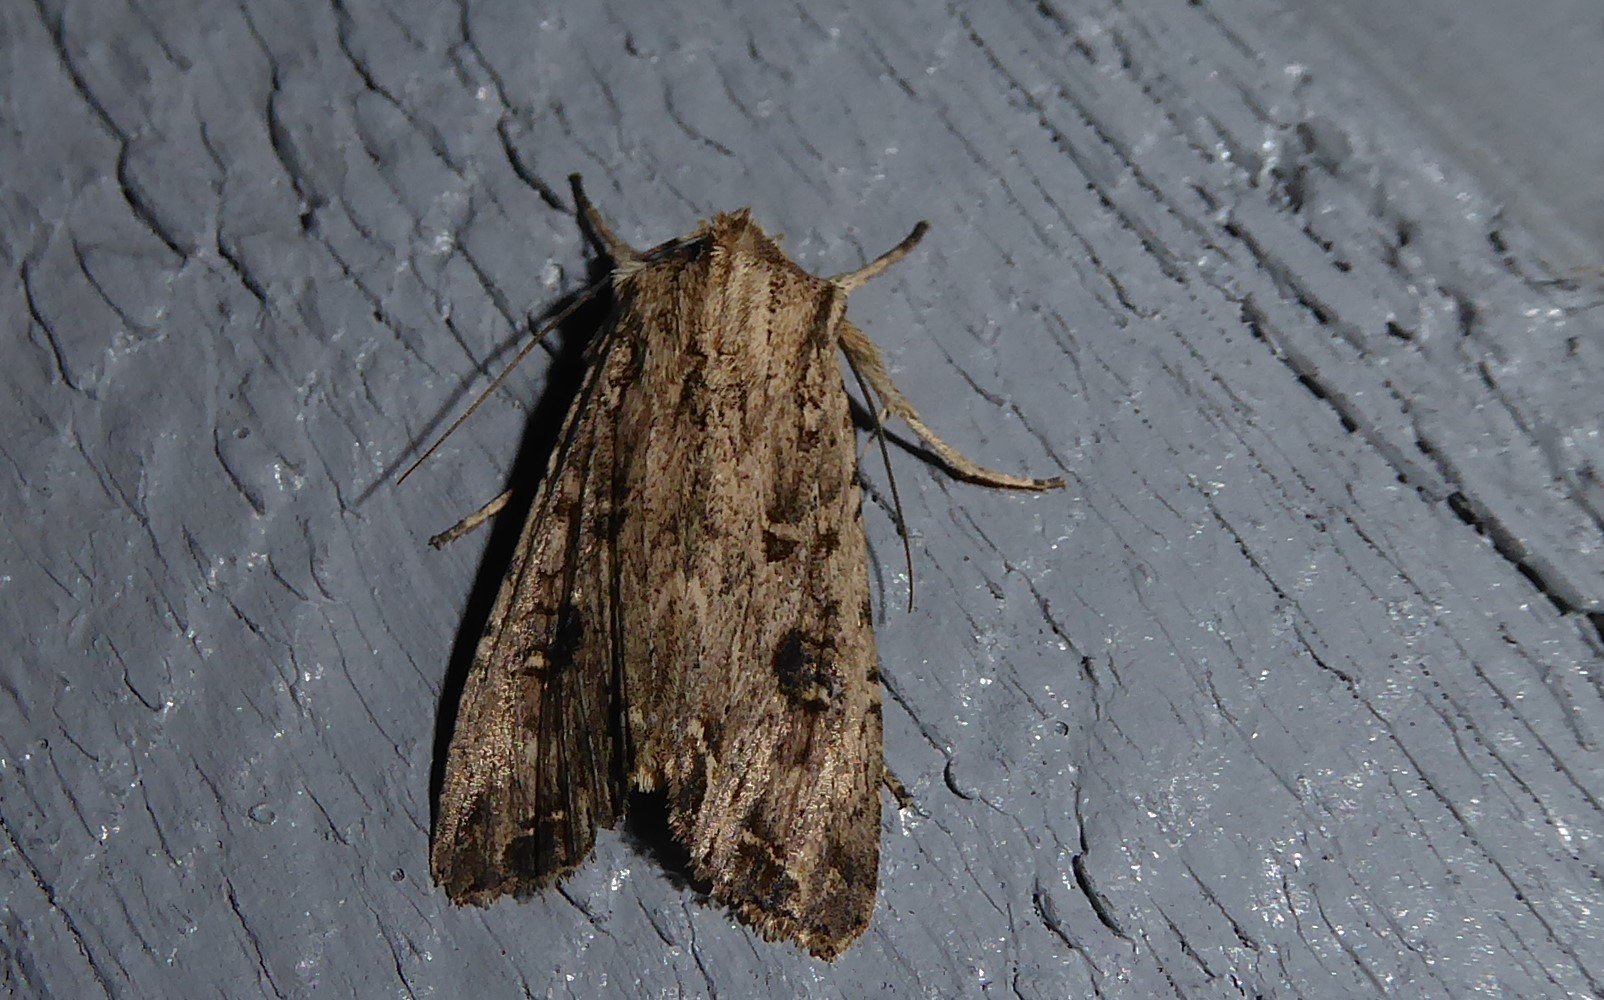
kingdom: Animalia
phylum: Arthropoda
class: Insecta
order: Lepidoptera
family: Noctuidae
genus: Ichneutica
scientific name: Ichneutica lignana
